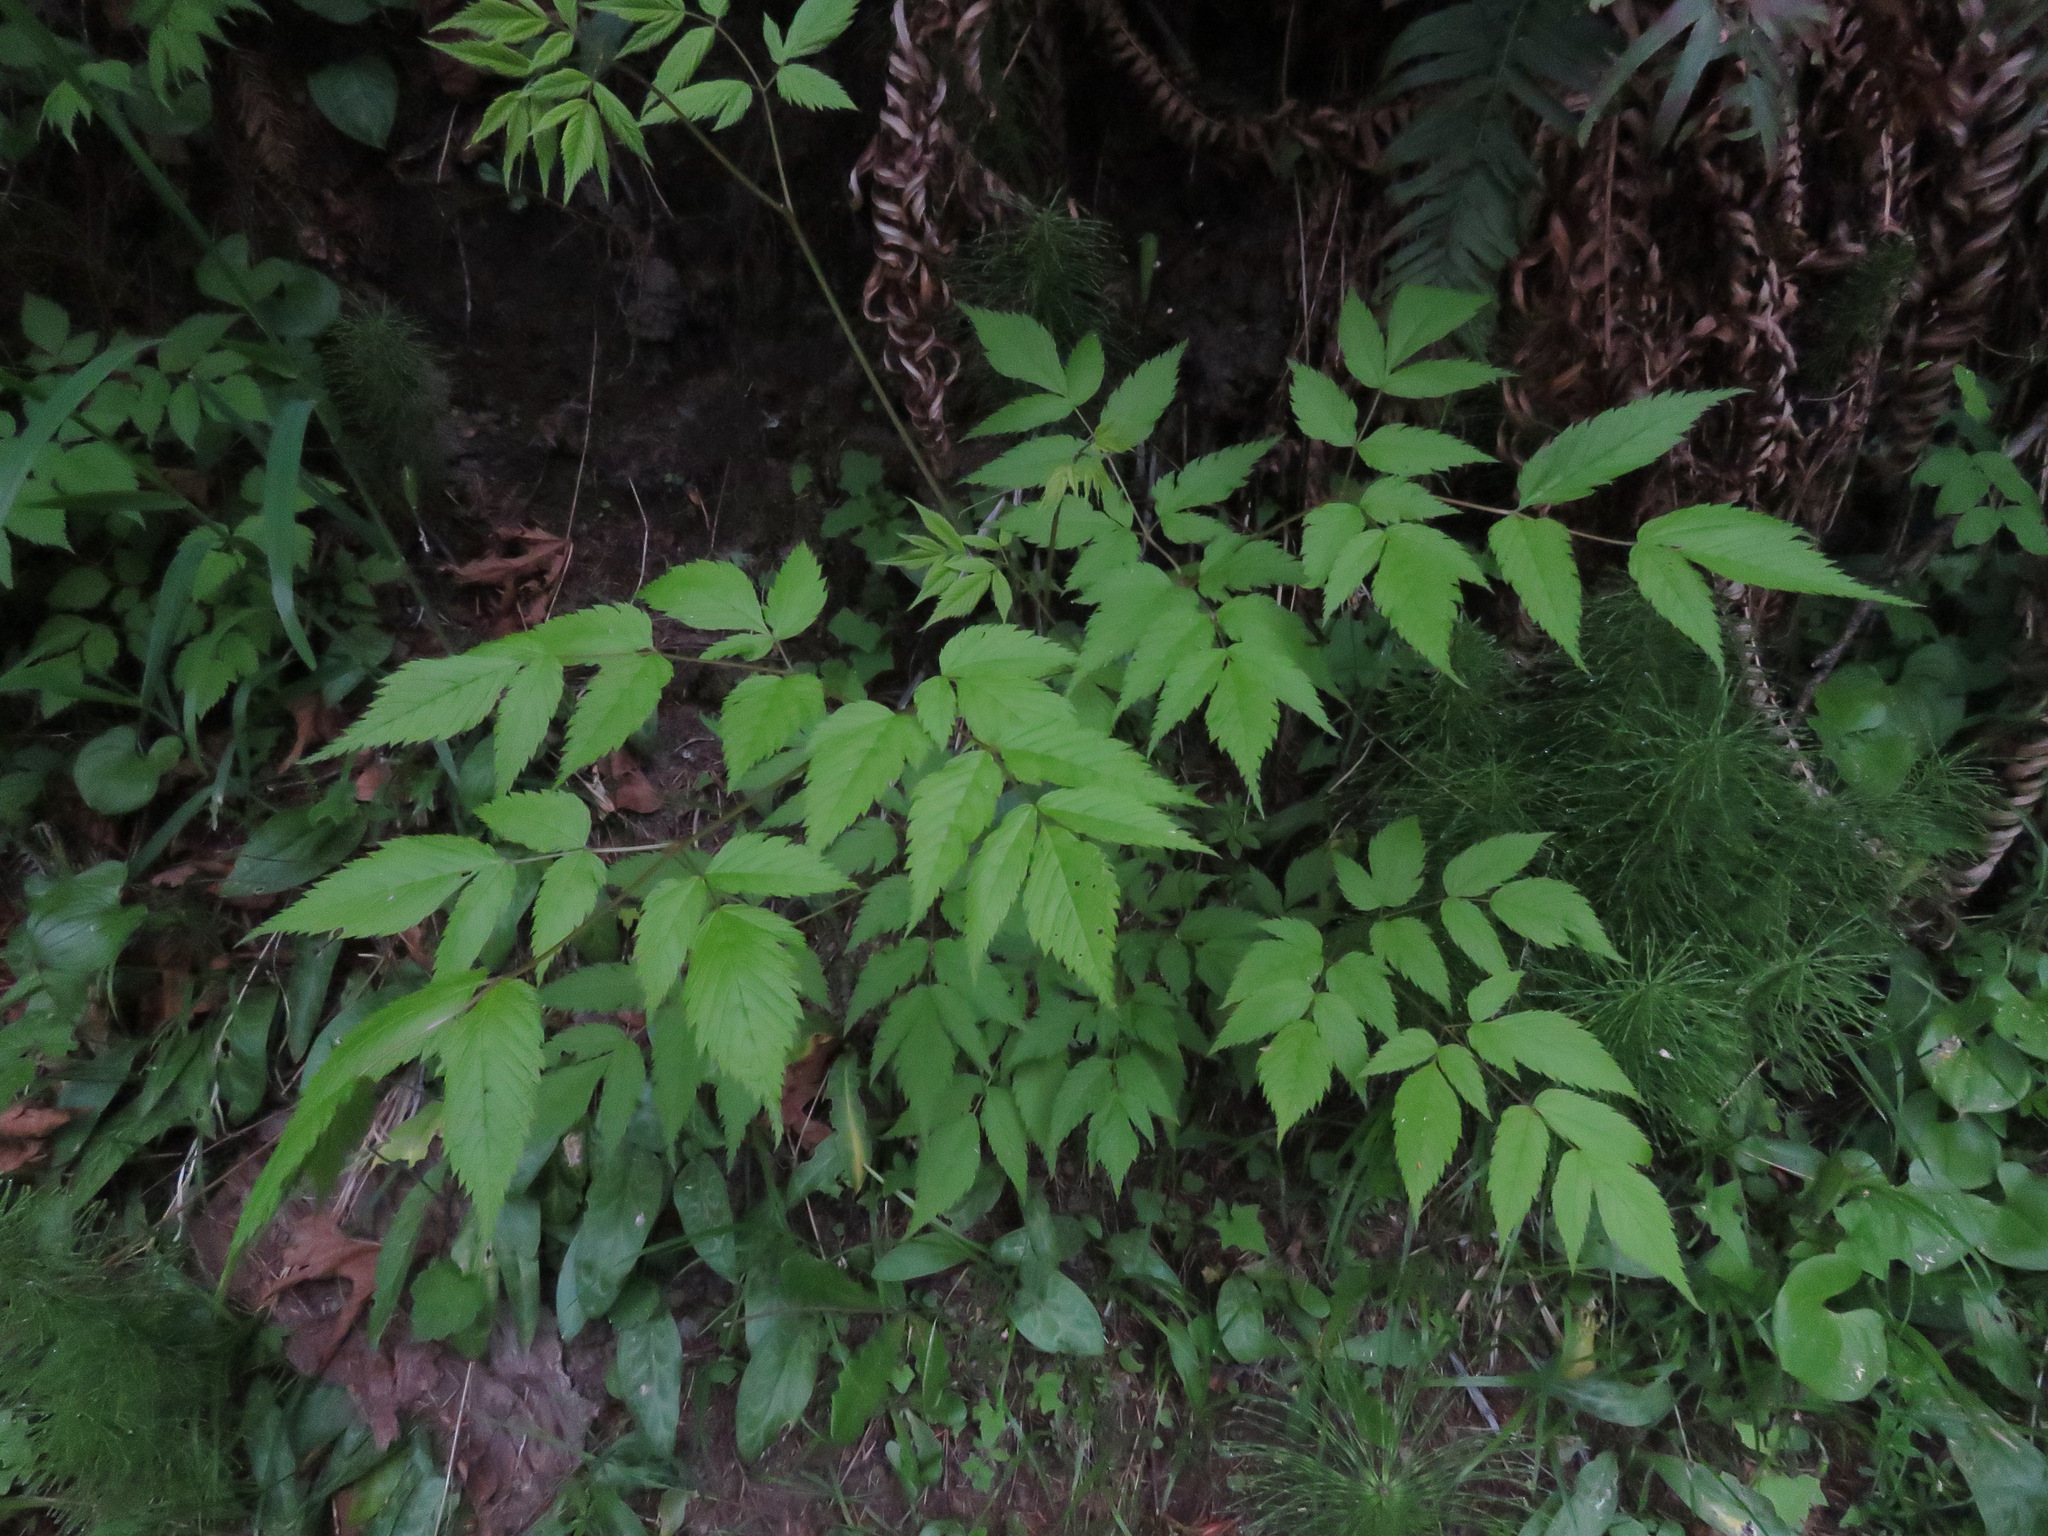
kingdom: Plantae
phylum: Tracheophyta
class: Magnoliopsida
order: Rosales
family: Rosaceae
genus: Aruncus
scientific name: Aruncus dioicus
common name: Buck's-beard
